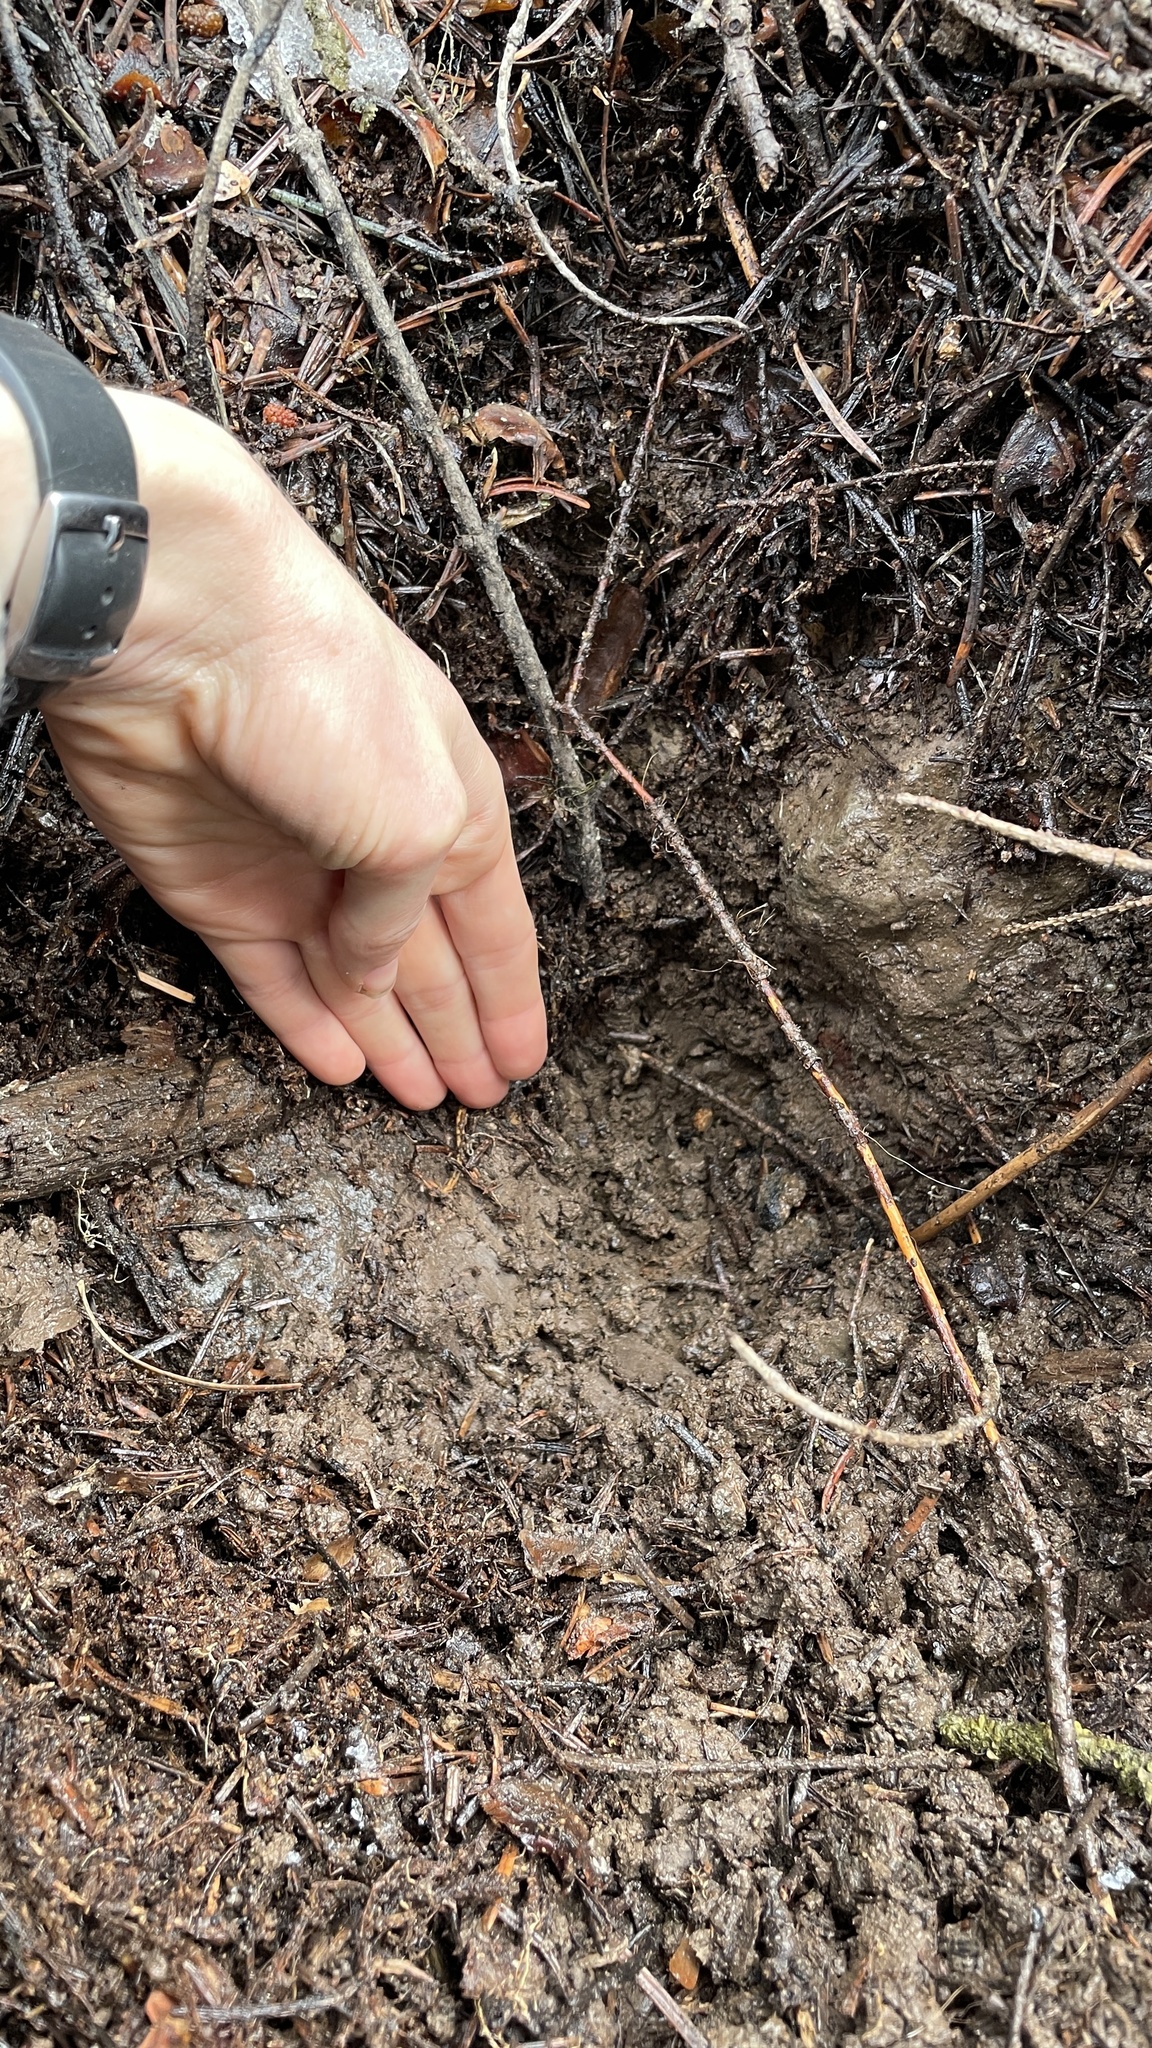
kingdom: Fungi
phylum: Ascomycota
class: Pezizomycetes
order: Pezizales
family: Morchellaceae
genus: Leucangium
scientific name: Leucangium carthusianum
